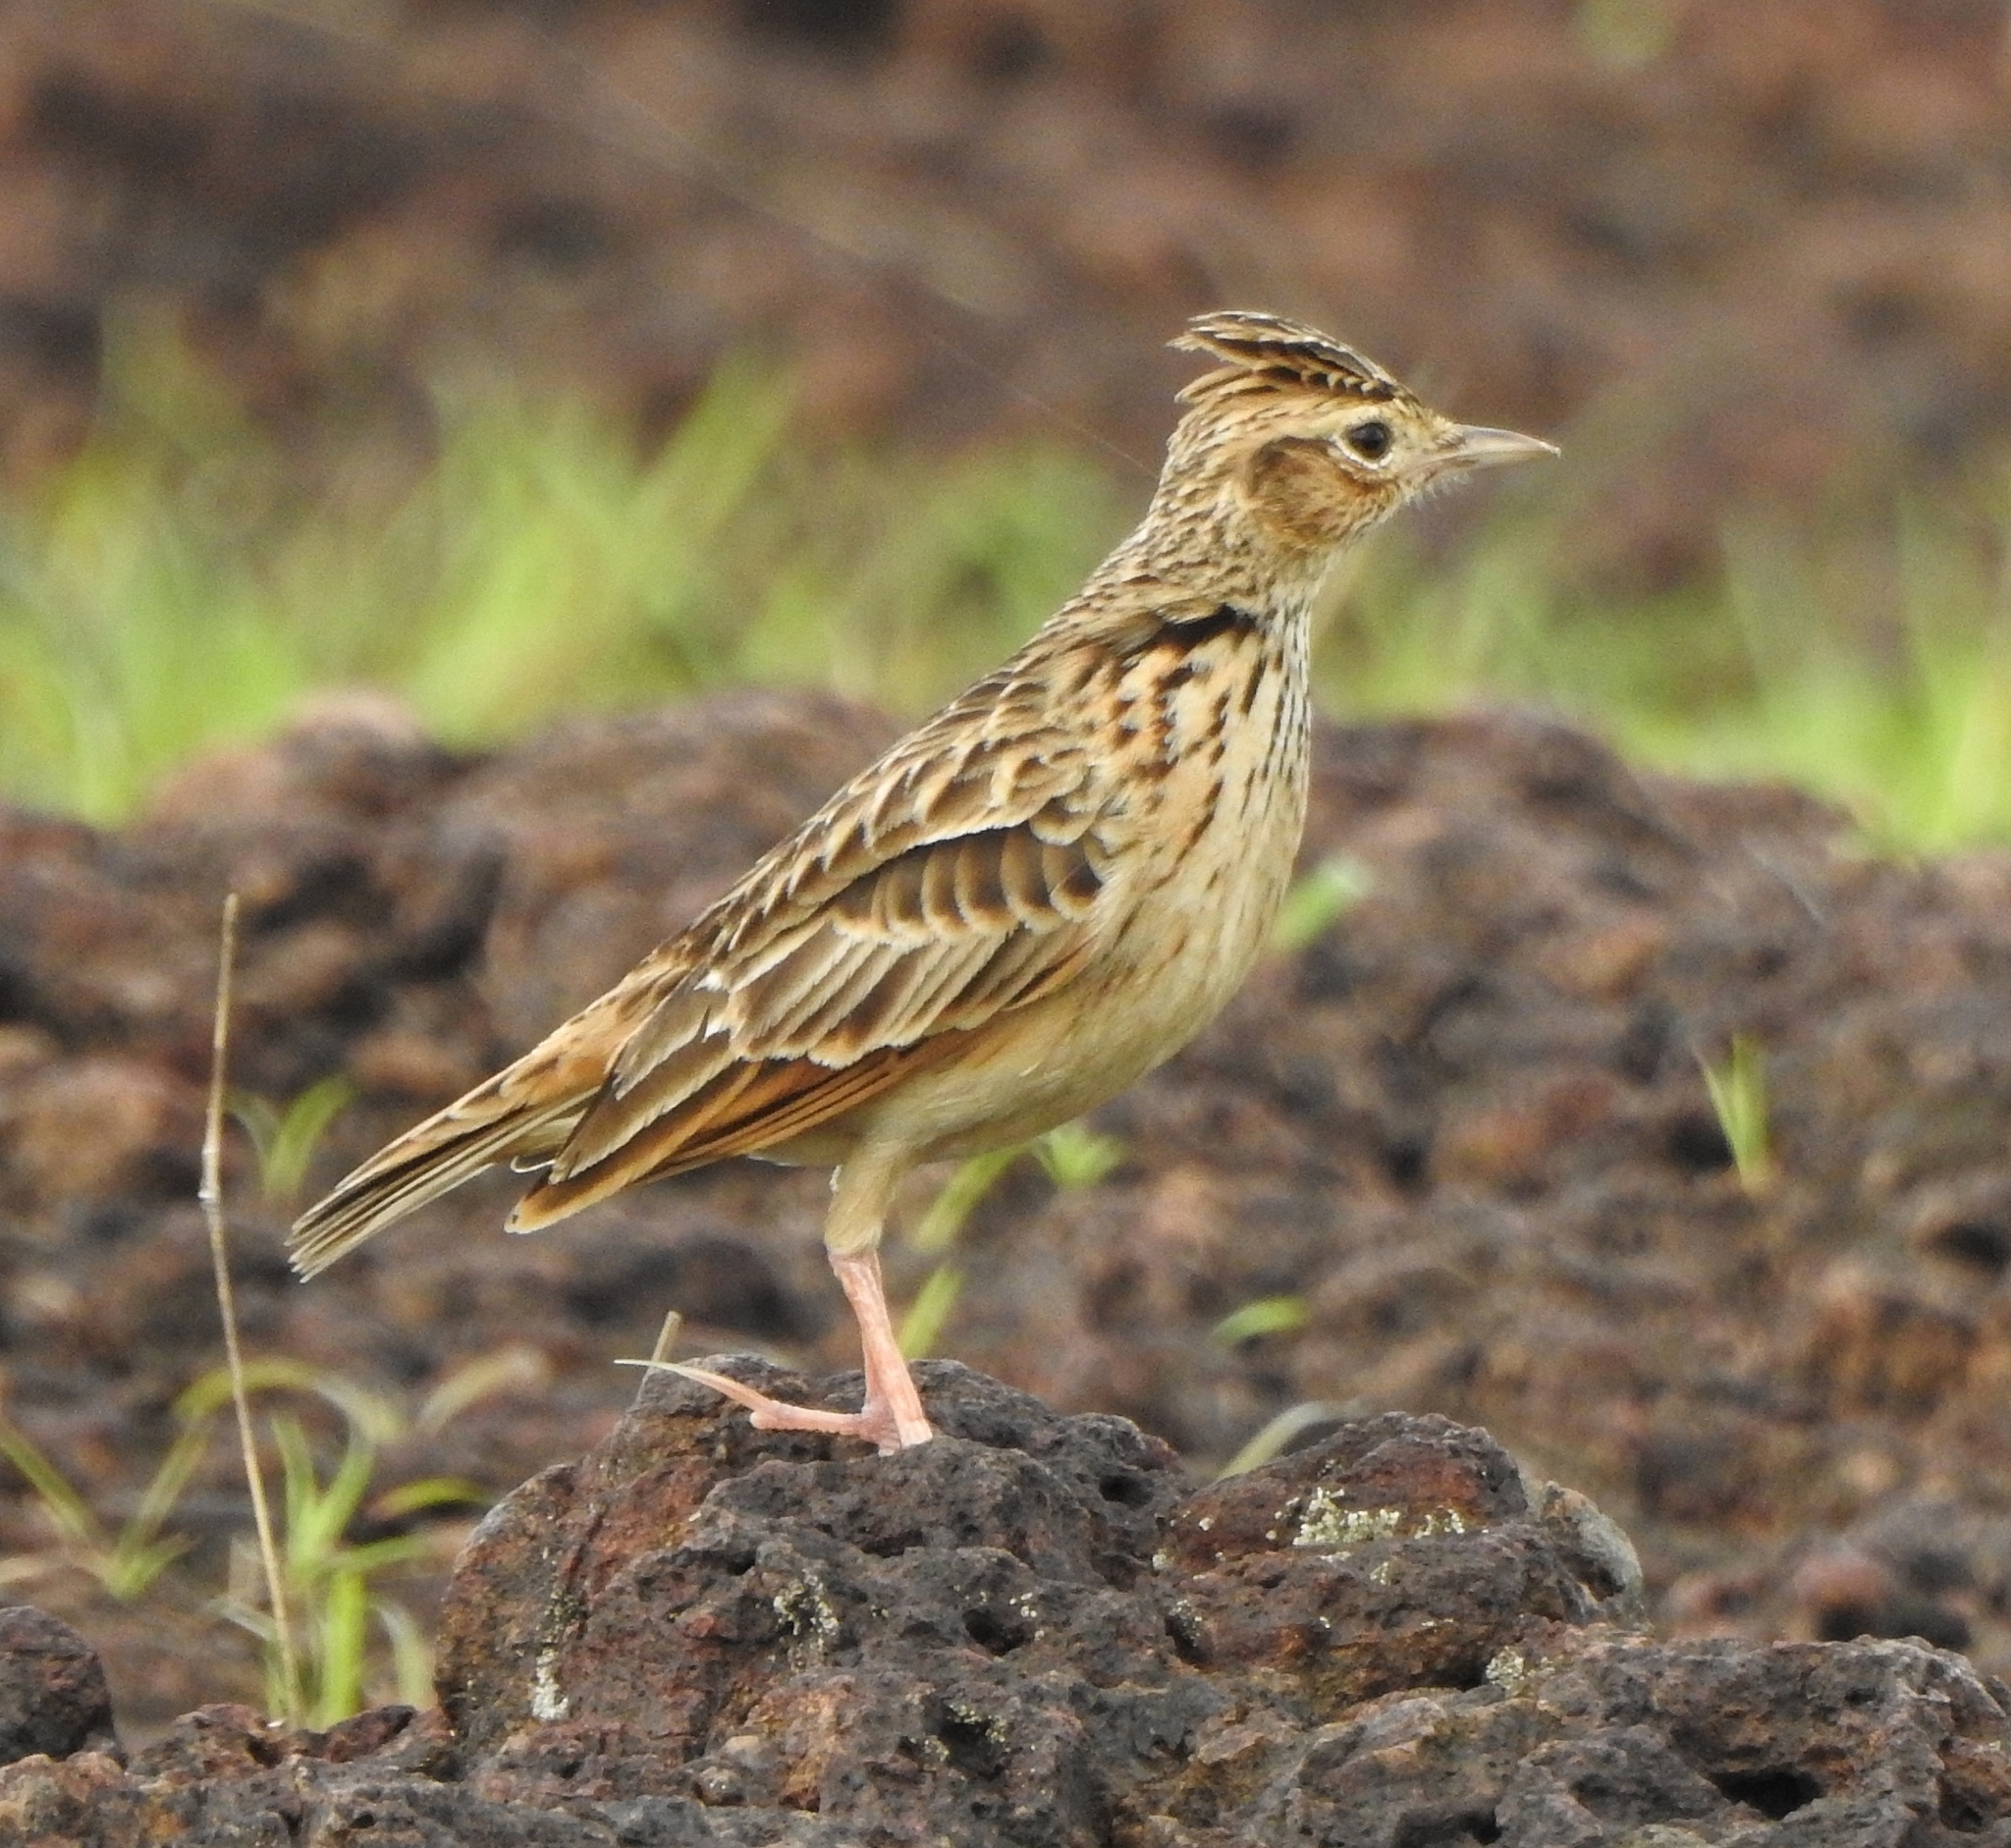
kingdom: Animalia
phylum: Chordata
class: Aves
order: Passeriformes
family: Alaudidae
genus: Alauda
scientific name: Alauda gulgula
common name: Oriental skylark
